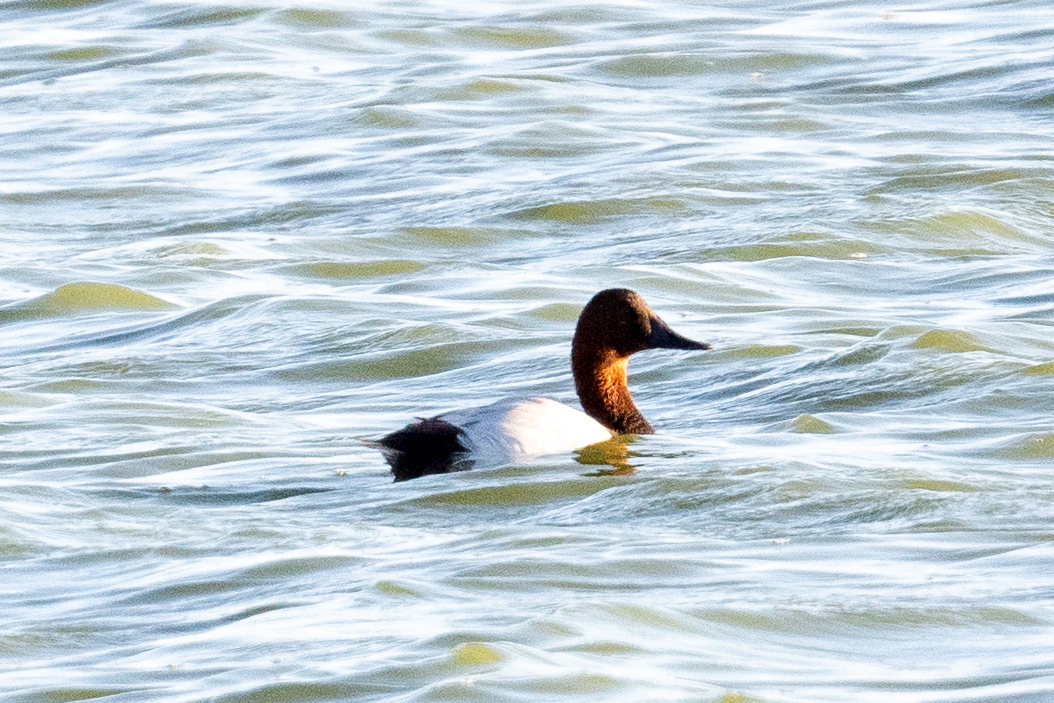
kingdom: Animalia
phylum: Chordata
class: Aves
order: Anseriformes
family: Anatidae
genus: Aythya
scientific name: Aythya valisineria
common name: Canvasback
